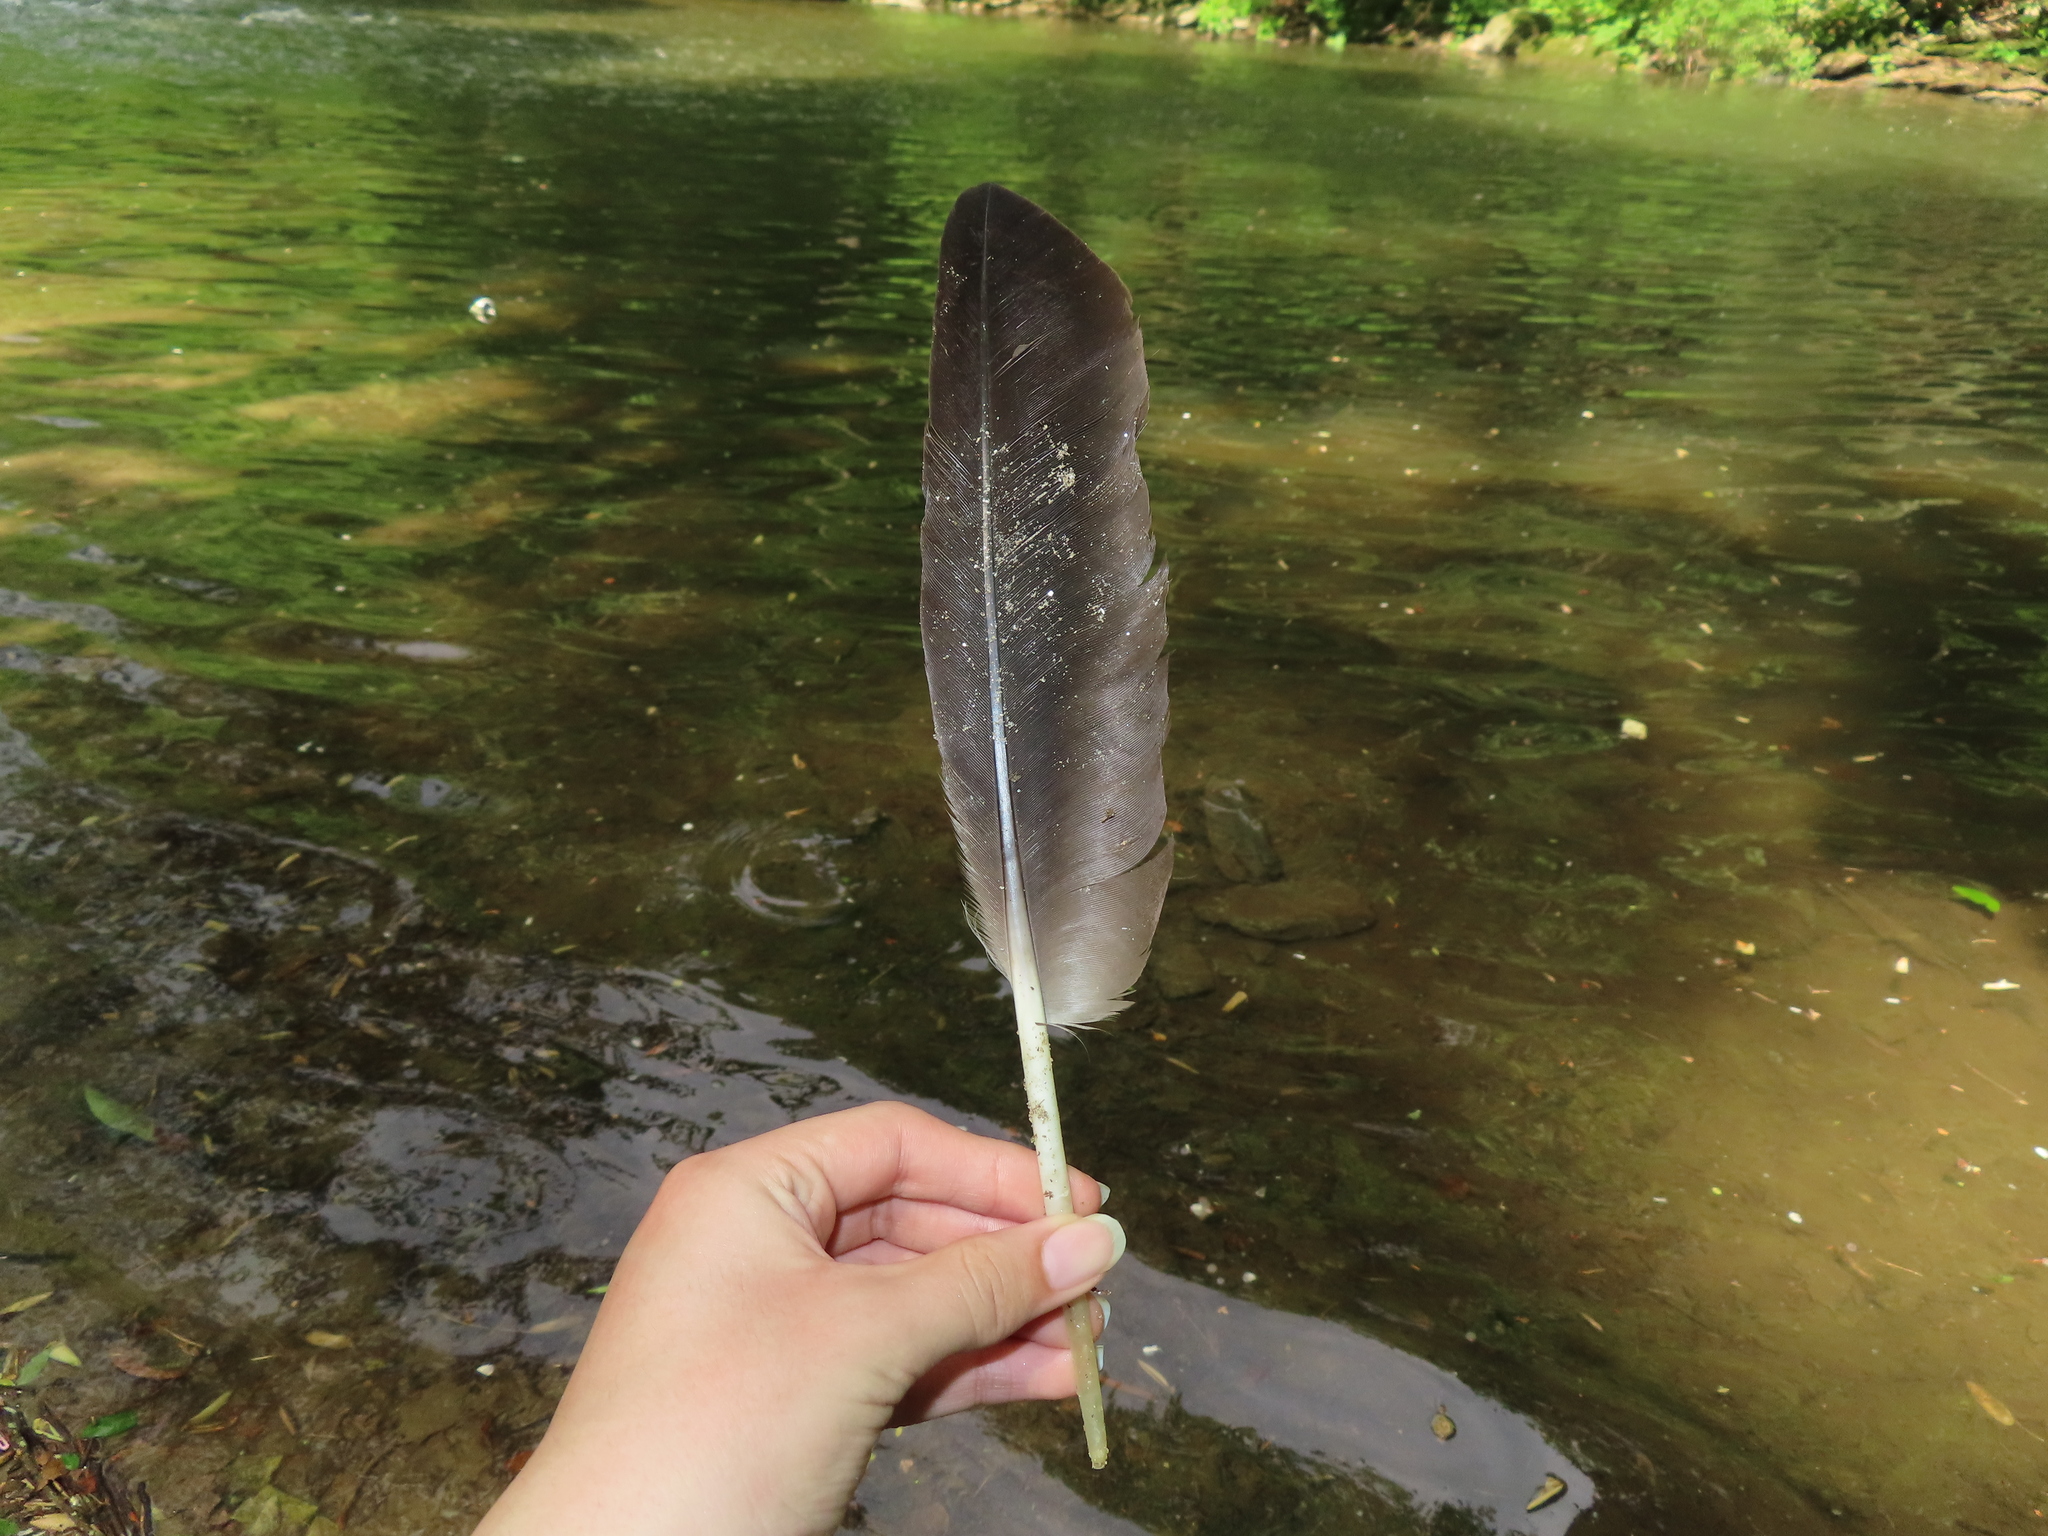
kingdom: Animalia
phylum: Chordata
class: Aves
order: Anseriformes
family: Anatidae
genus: Branta
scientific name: Branta canadensis
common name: Canada goose
